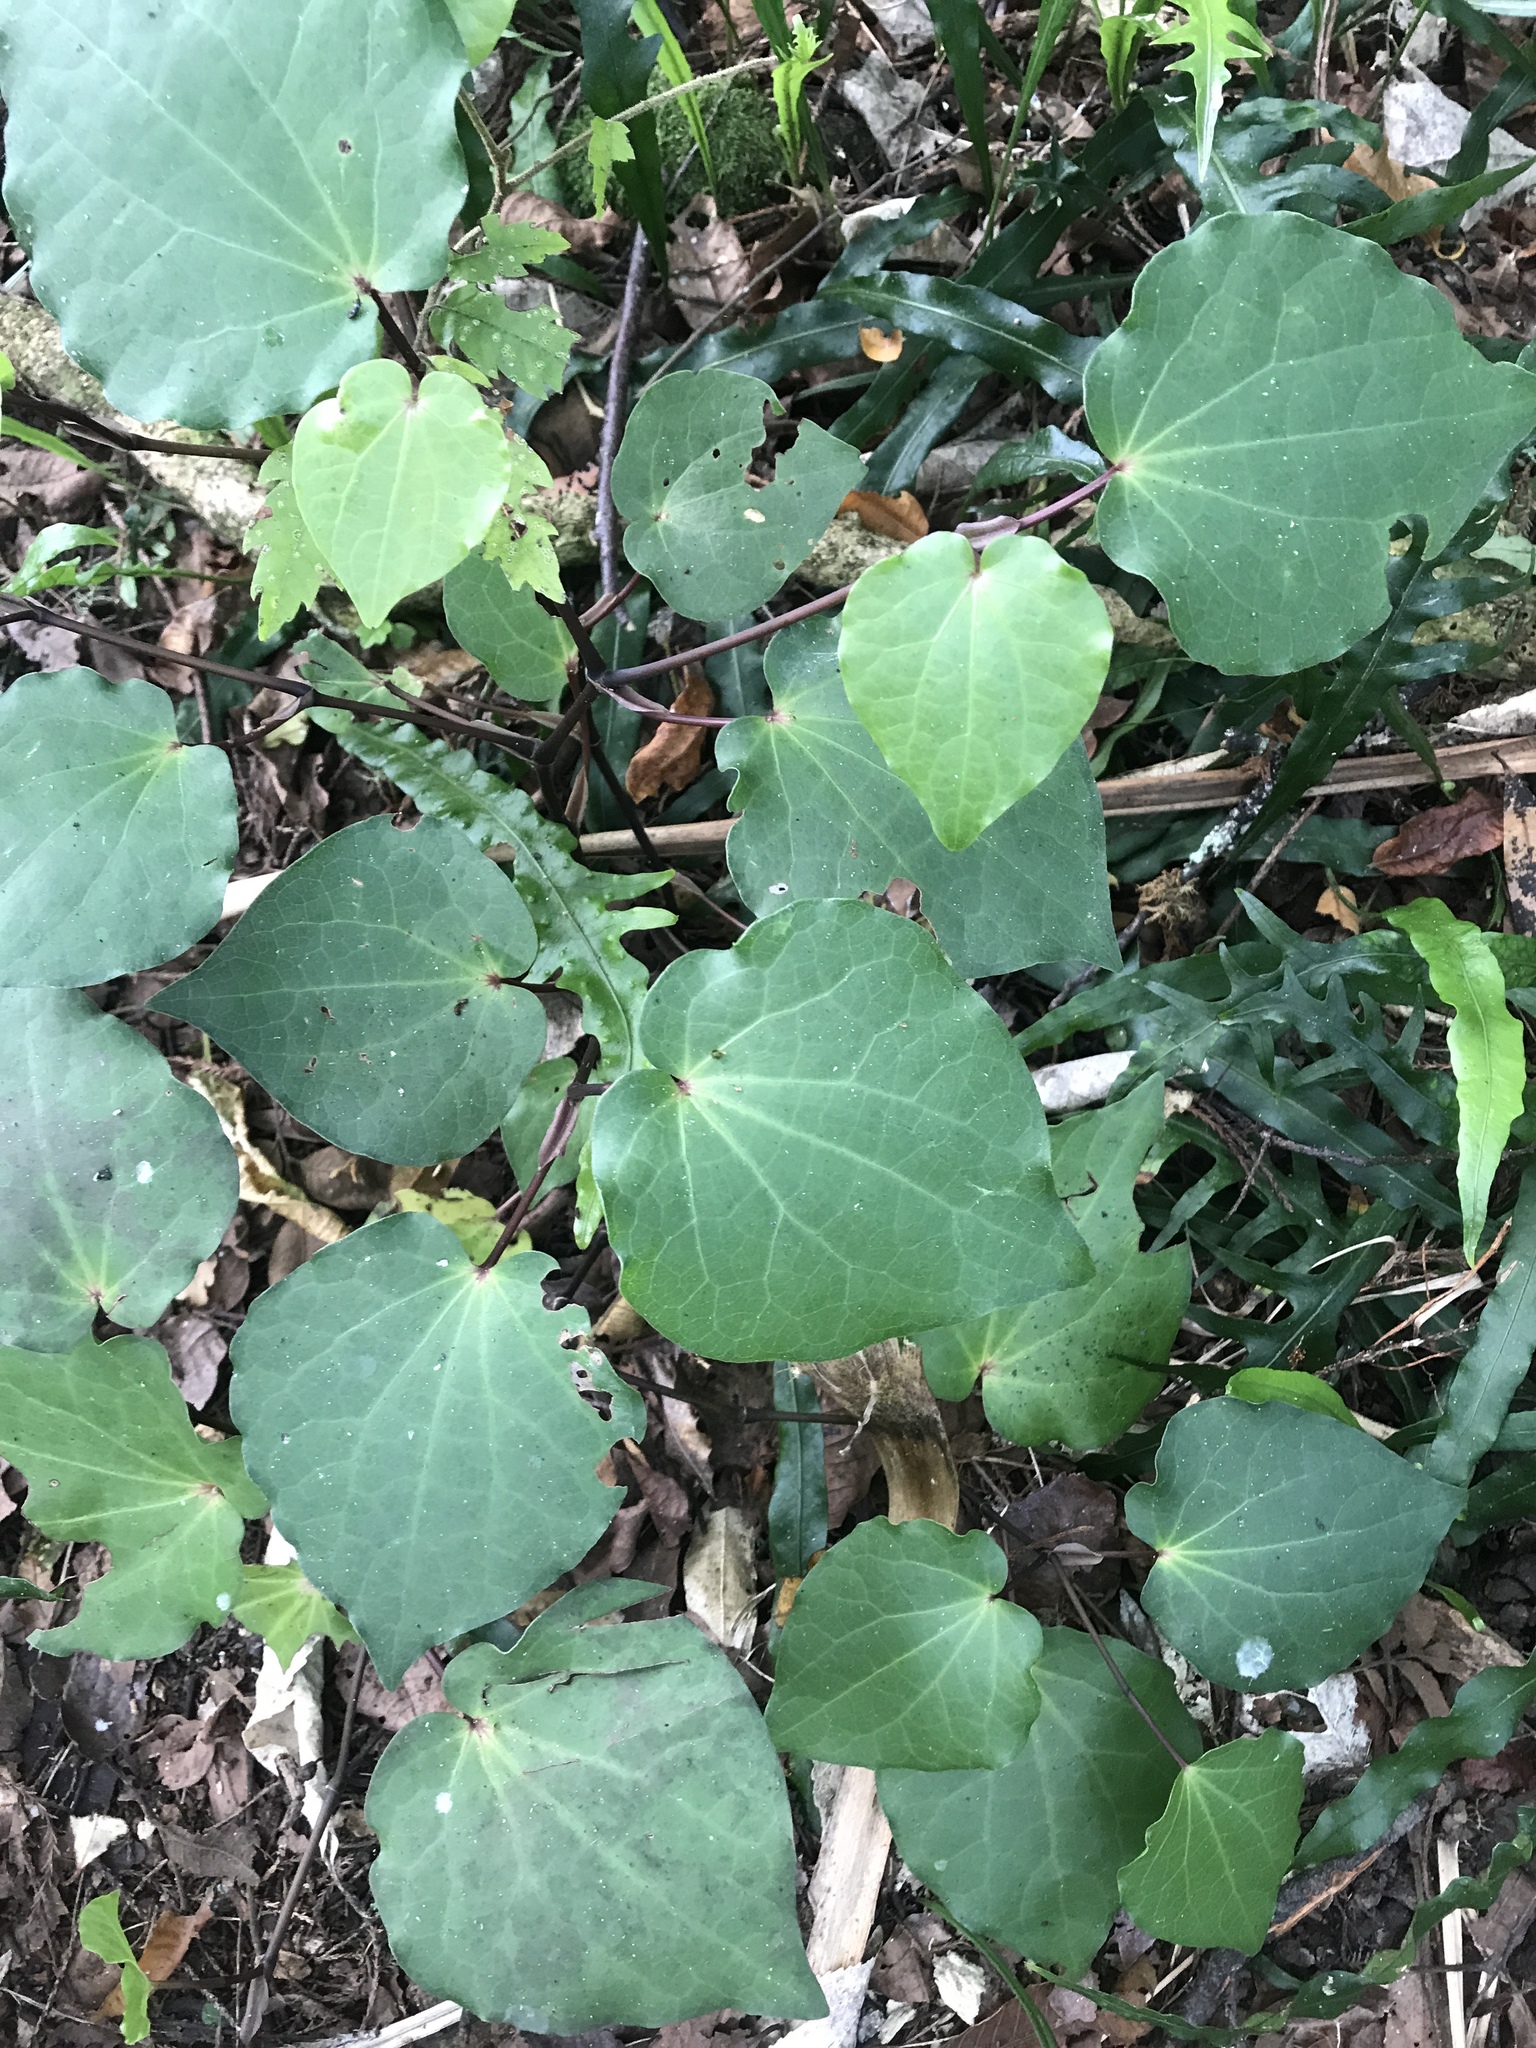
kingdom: Plantae
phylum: Tracheophyta
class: Magnoliopsida
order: Piperales
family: Piperaceae
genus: Macropiper
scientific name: Macropiper excelsum
